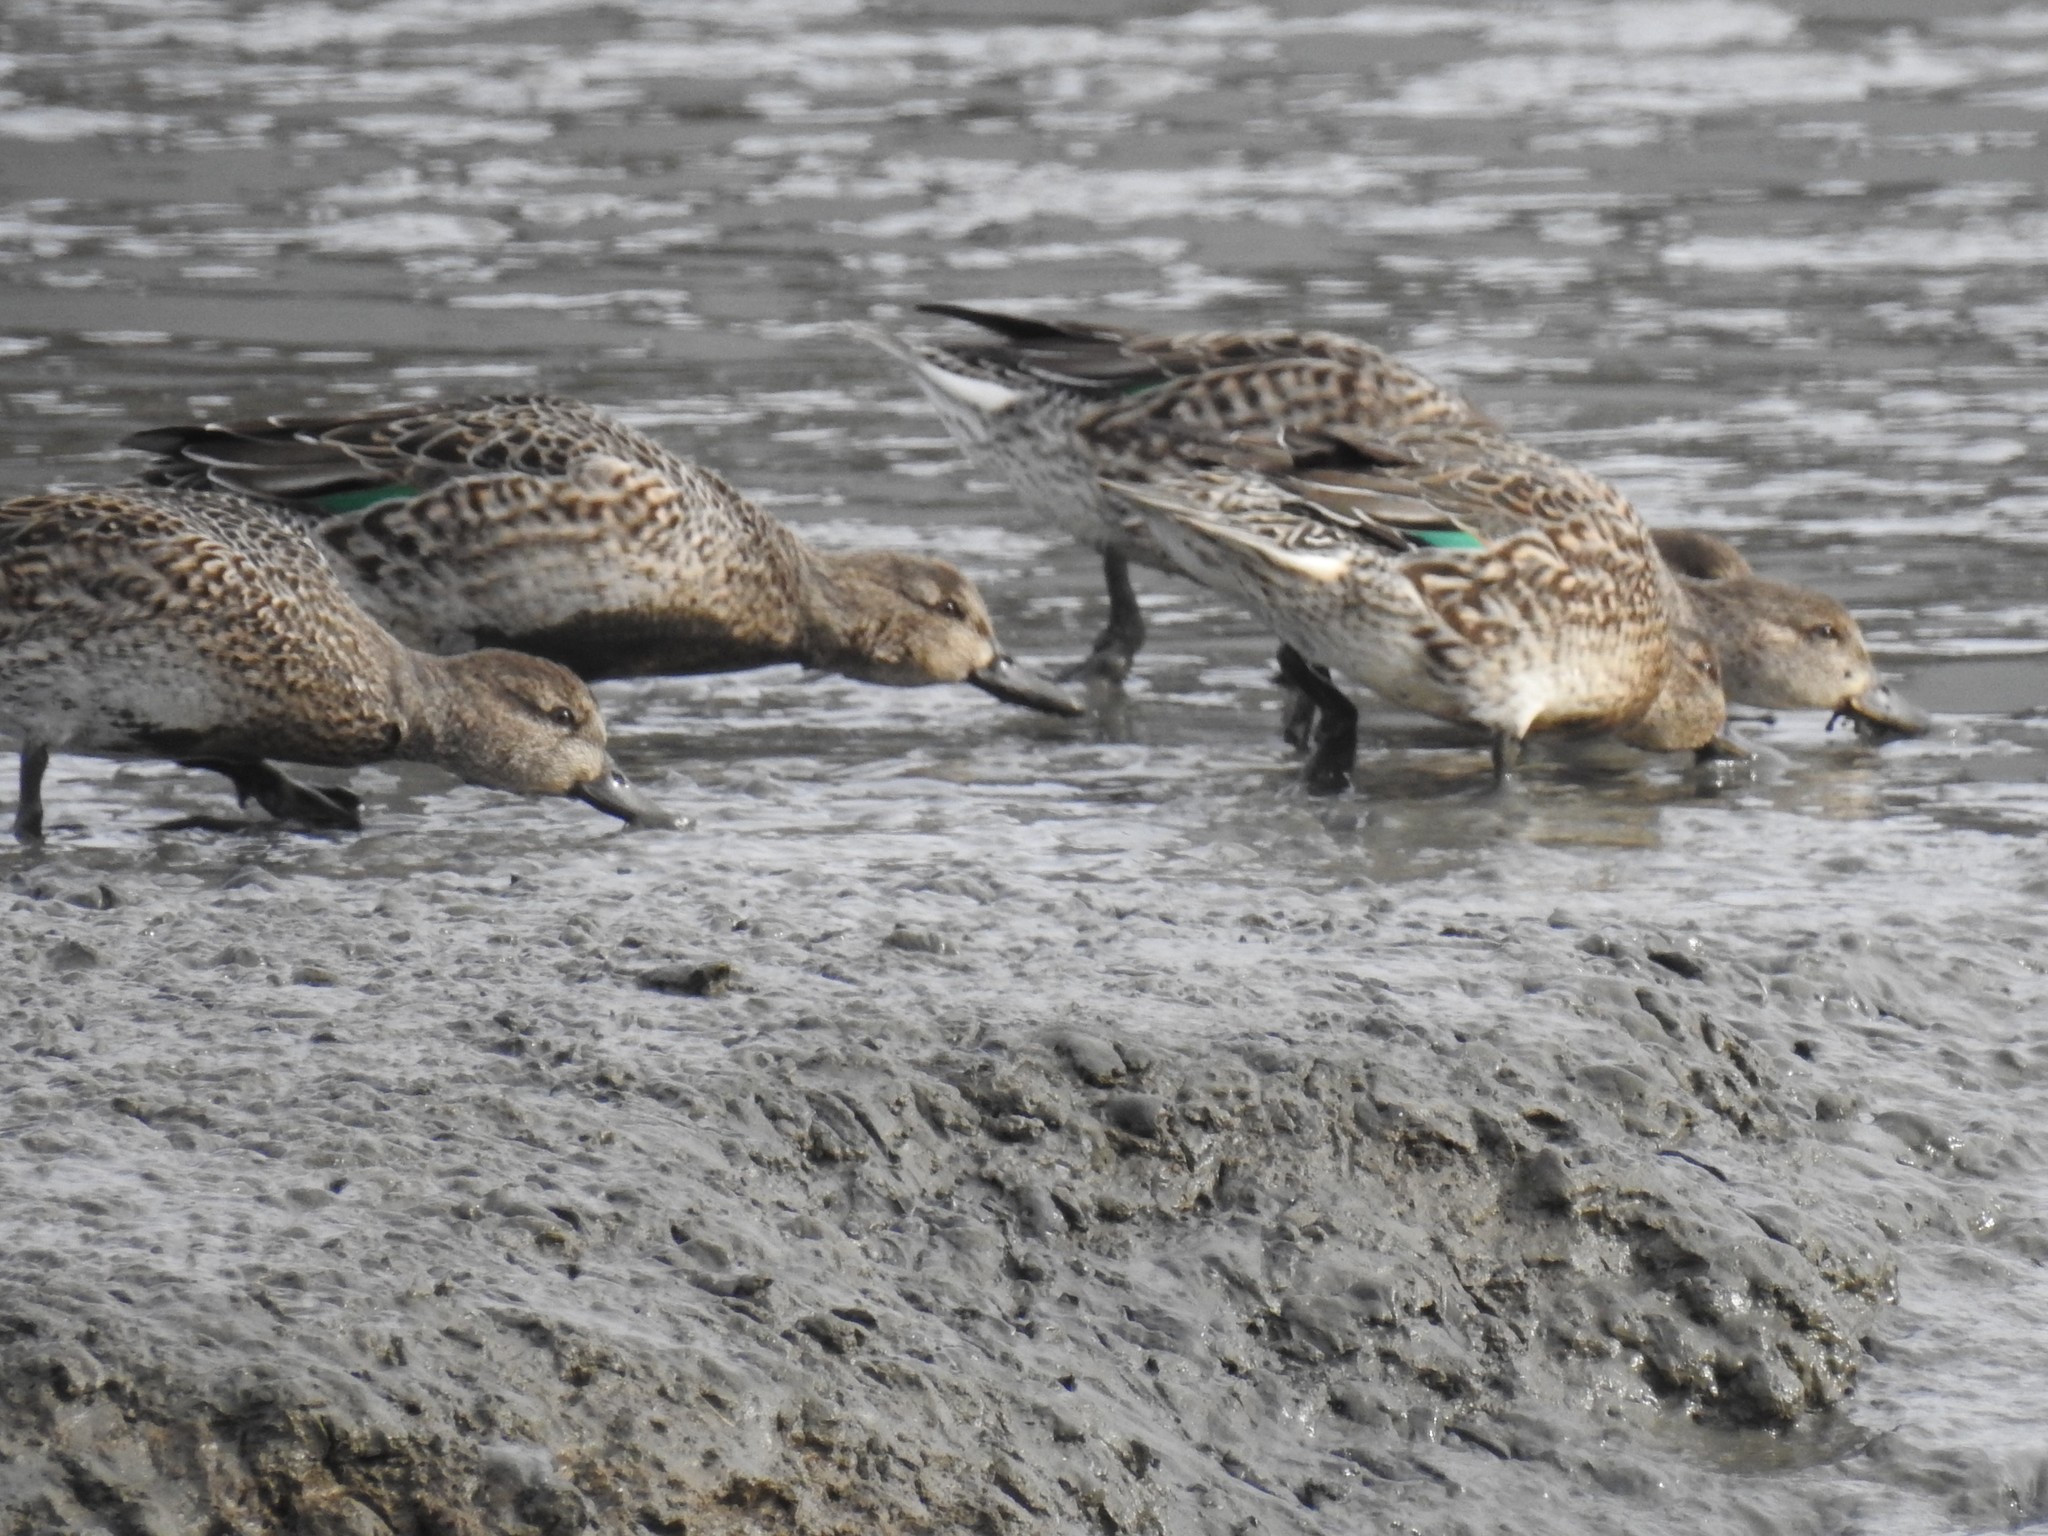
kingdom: Animalia
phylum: Chordata
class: Aves
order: Anseriformes
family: Anatidae
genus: Anas
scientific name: Anas crecca
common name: Eurasian teal
